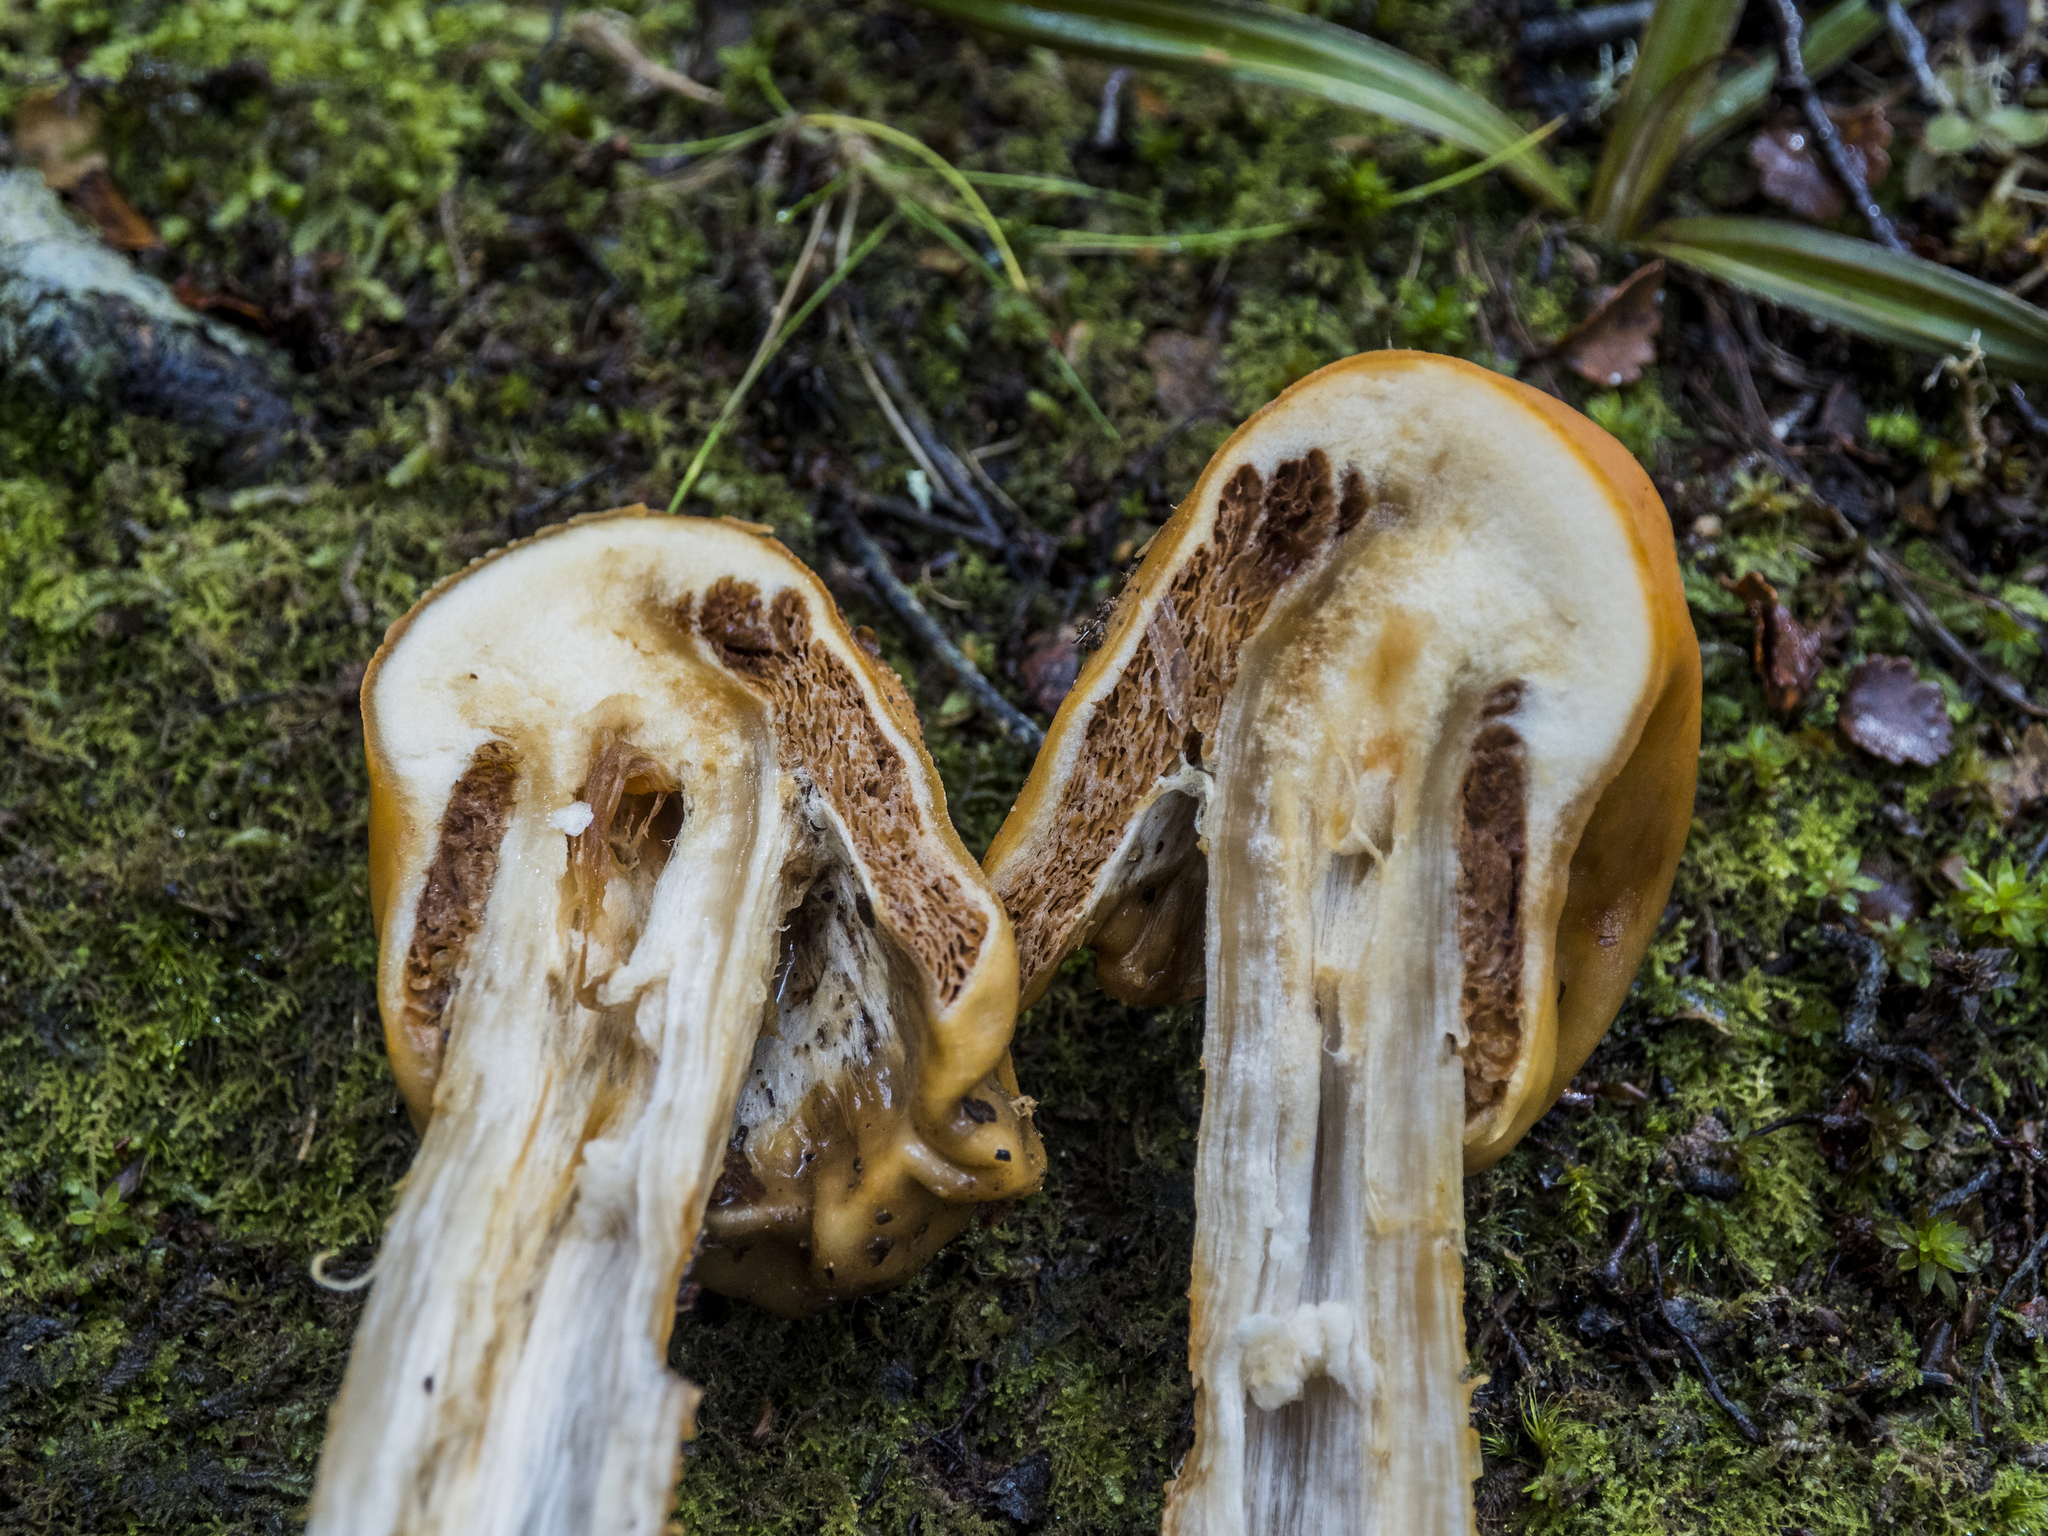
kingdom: Fungi
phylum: Basidiomycota
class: Agaricomycetes
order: Agaricales
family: Cortinariaceae
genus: Cortinarius
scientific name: Cortinarius epiphaeus
